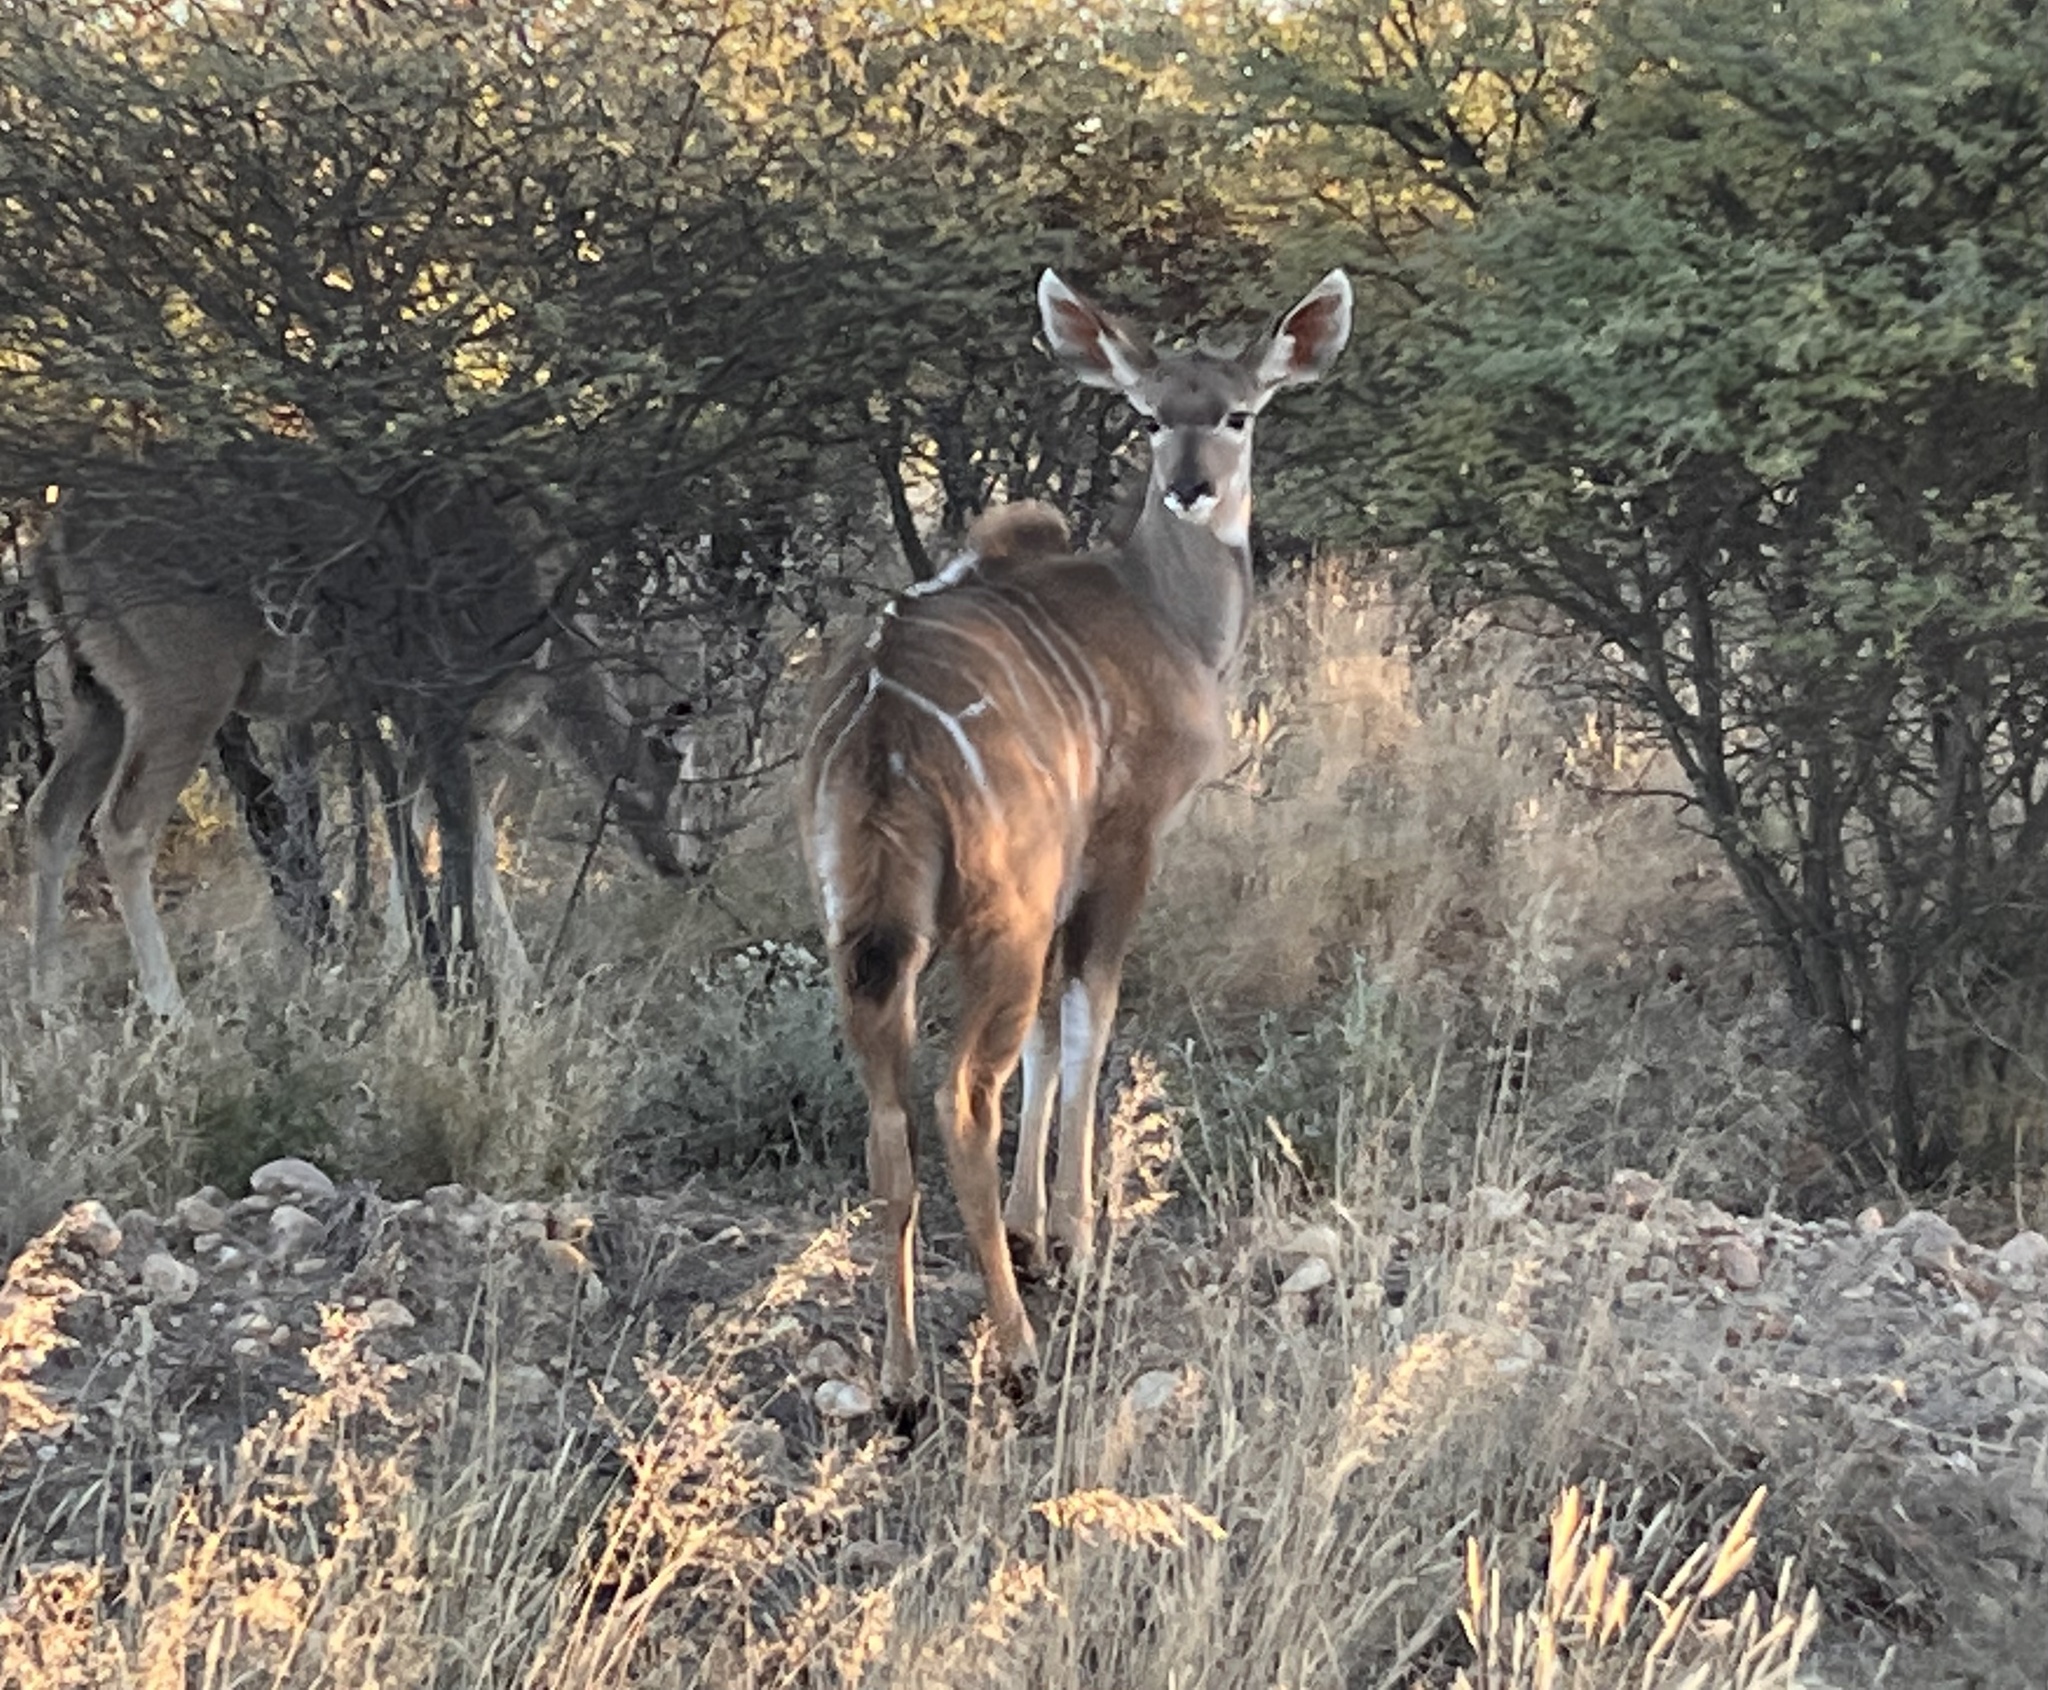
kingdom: Animalia
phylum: Chordata
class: Mammalia
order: Artiodactyla
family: Bovidae
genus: Tragelaphus
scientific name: Tragelaphus strepsiceros
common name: Greater kudu
